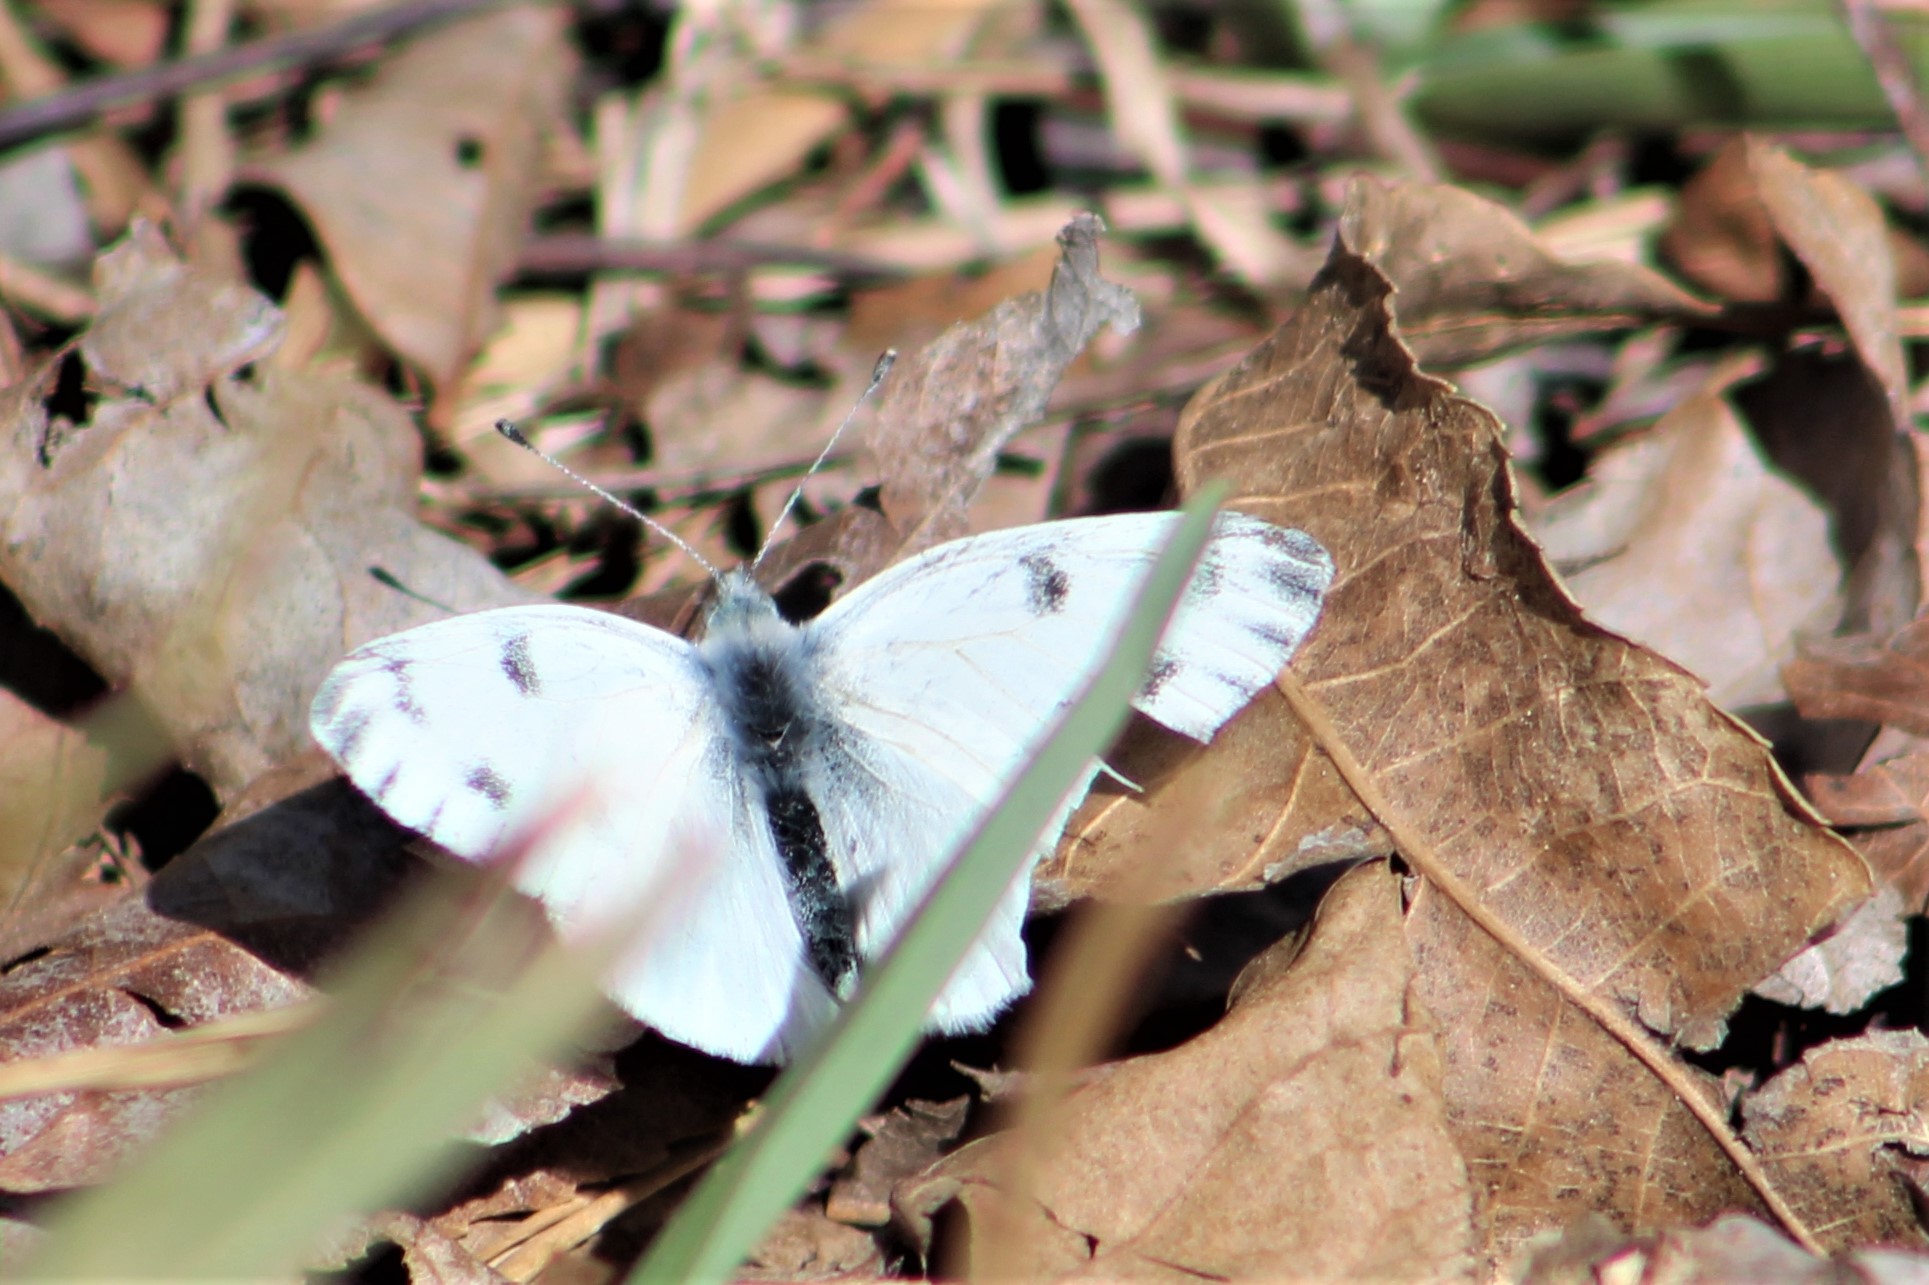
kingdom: Animalia
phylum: Arthropoda
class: Insecta
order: Lepidoptera
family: Pieridae
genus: Pontia
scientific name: Pontia protodice
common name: Checkered white
